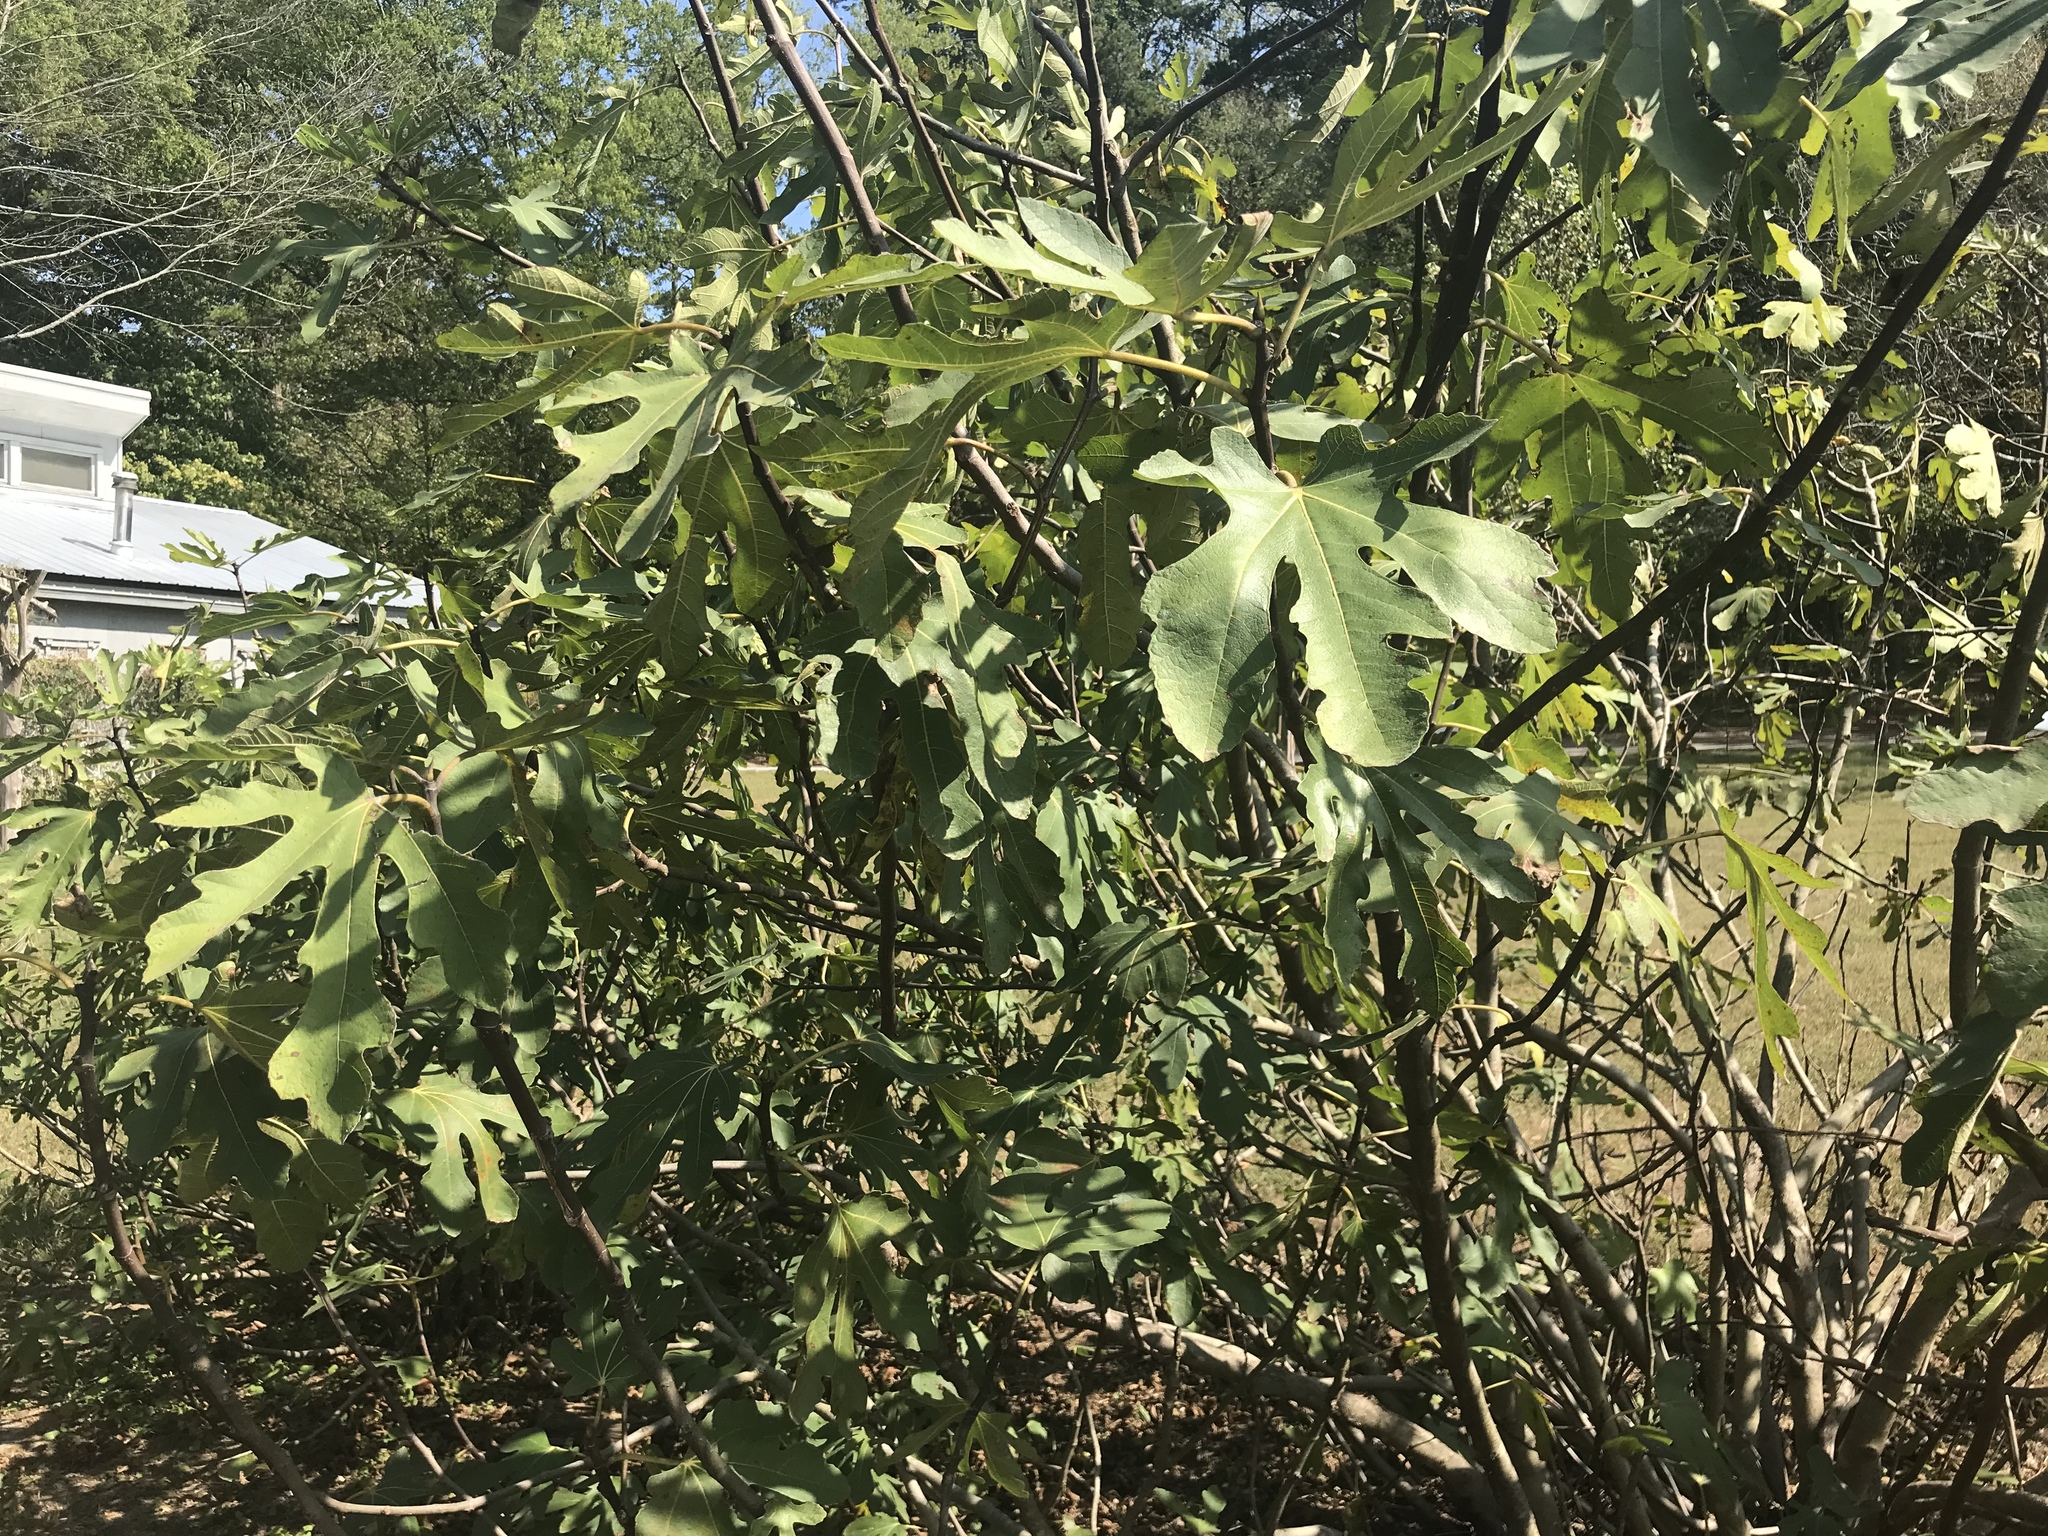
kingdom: Plantae
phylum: Tracheophyta
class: Magnoliopsida
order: Rosales
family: Moraceae
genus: Ficus
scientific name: Ficus carica
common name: Fig
